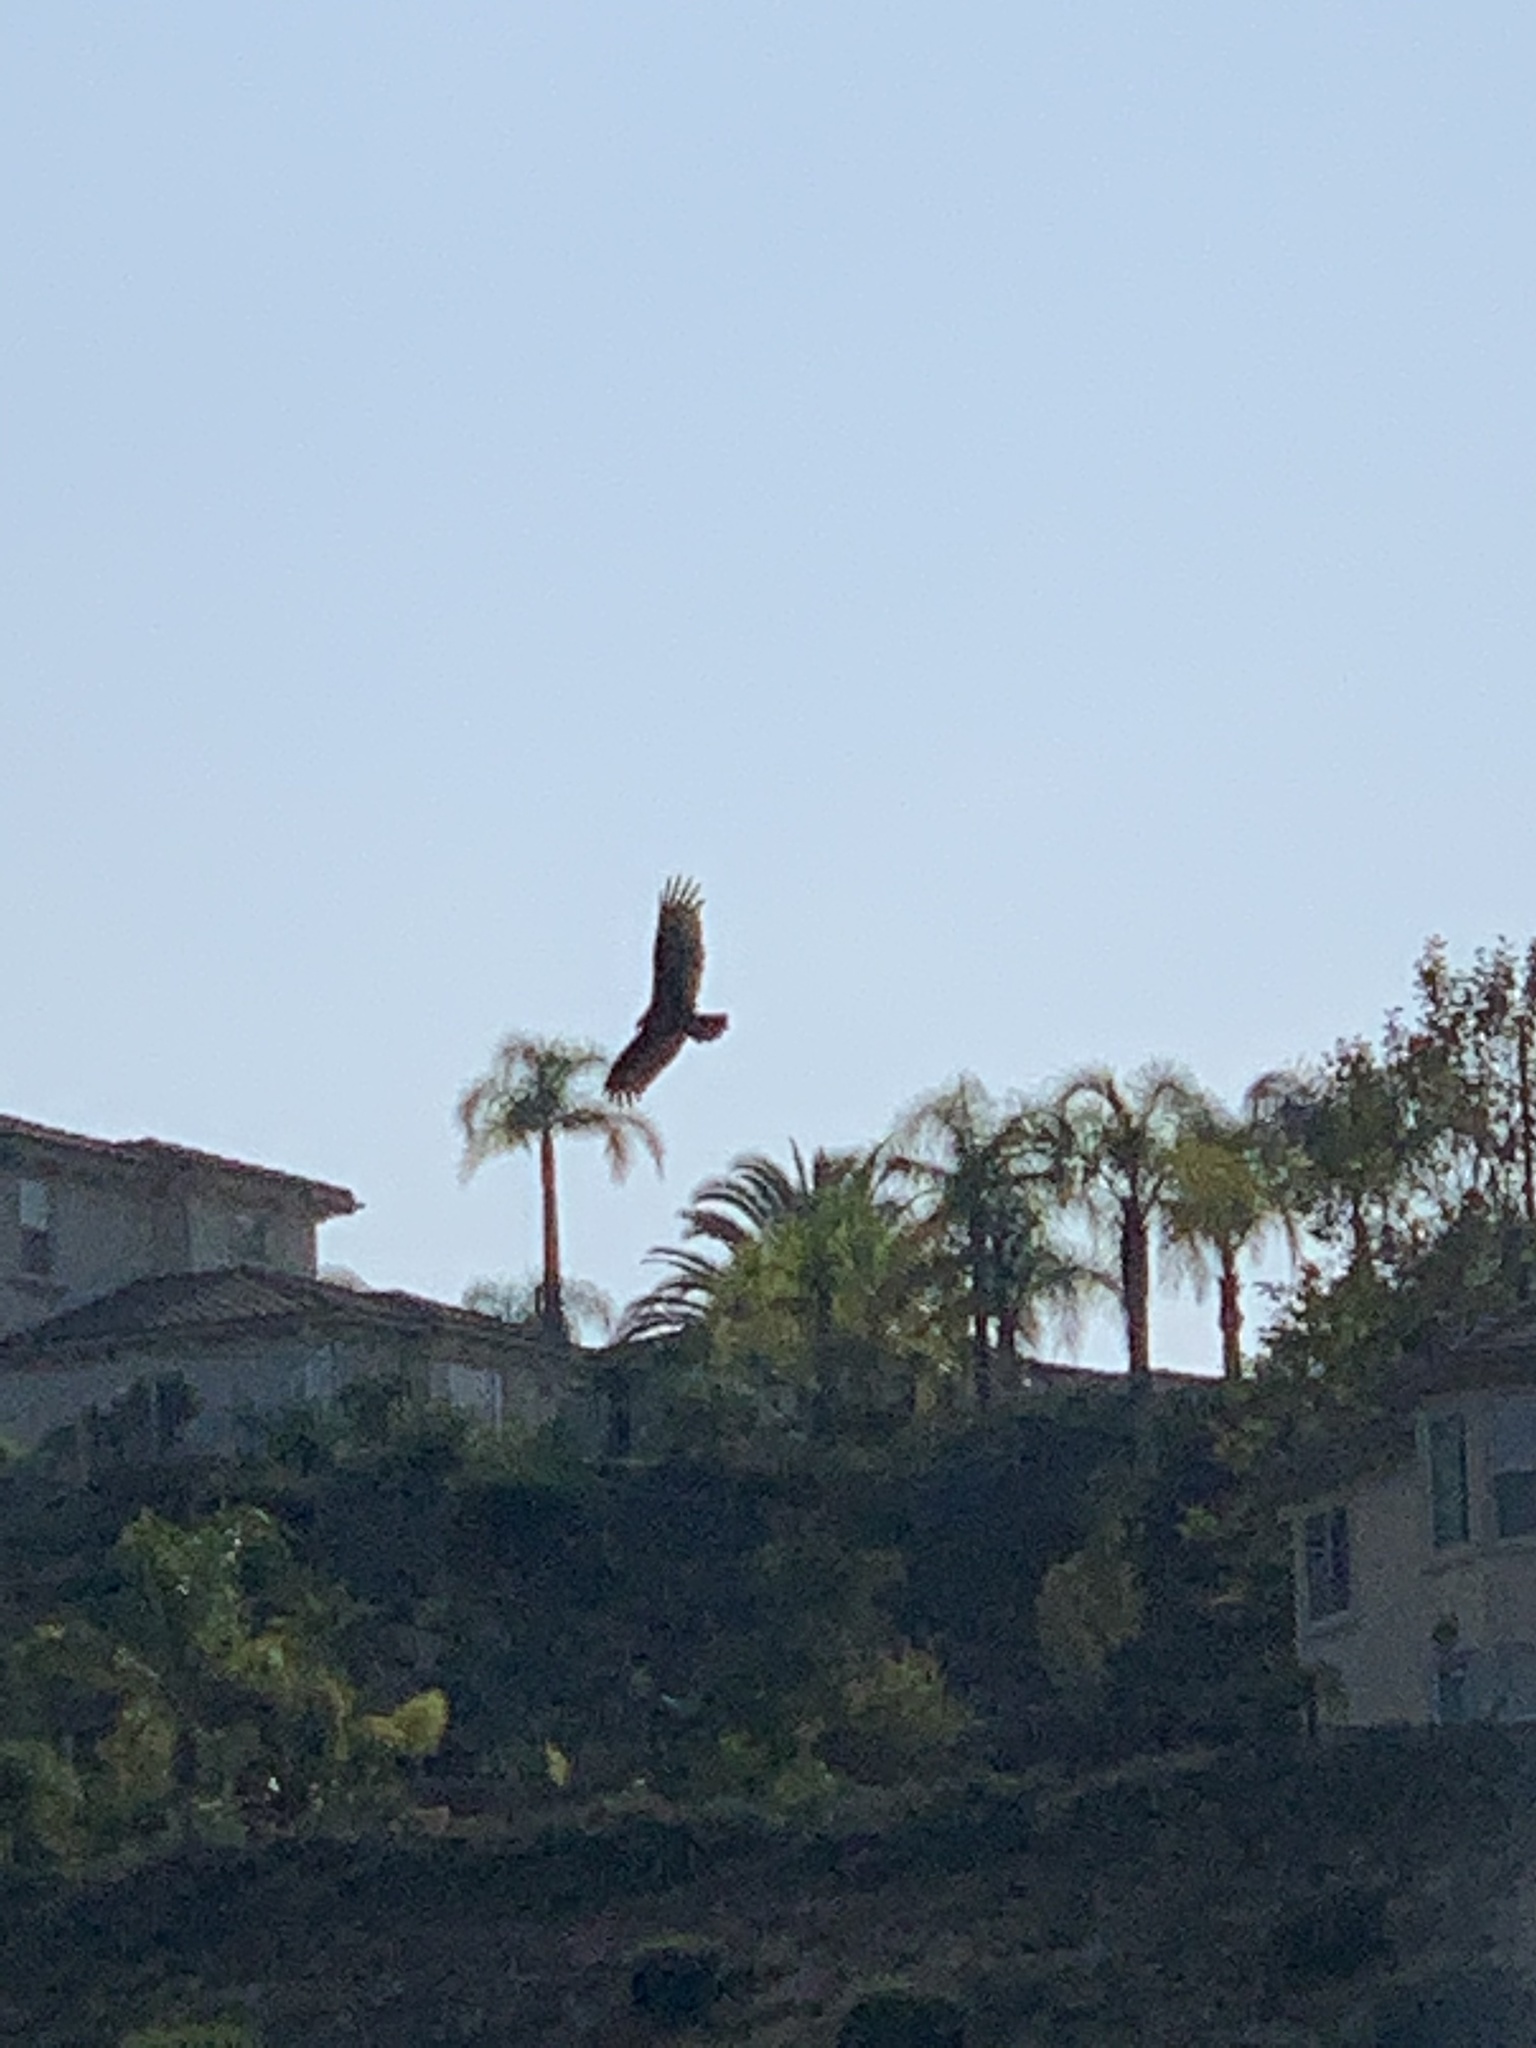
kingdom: Animalia
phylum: Chordata
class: Aves
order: Accipitriformes
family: Cathartidae
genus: Cathartes
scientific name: Cathartes aura
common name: Turkey vulture
